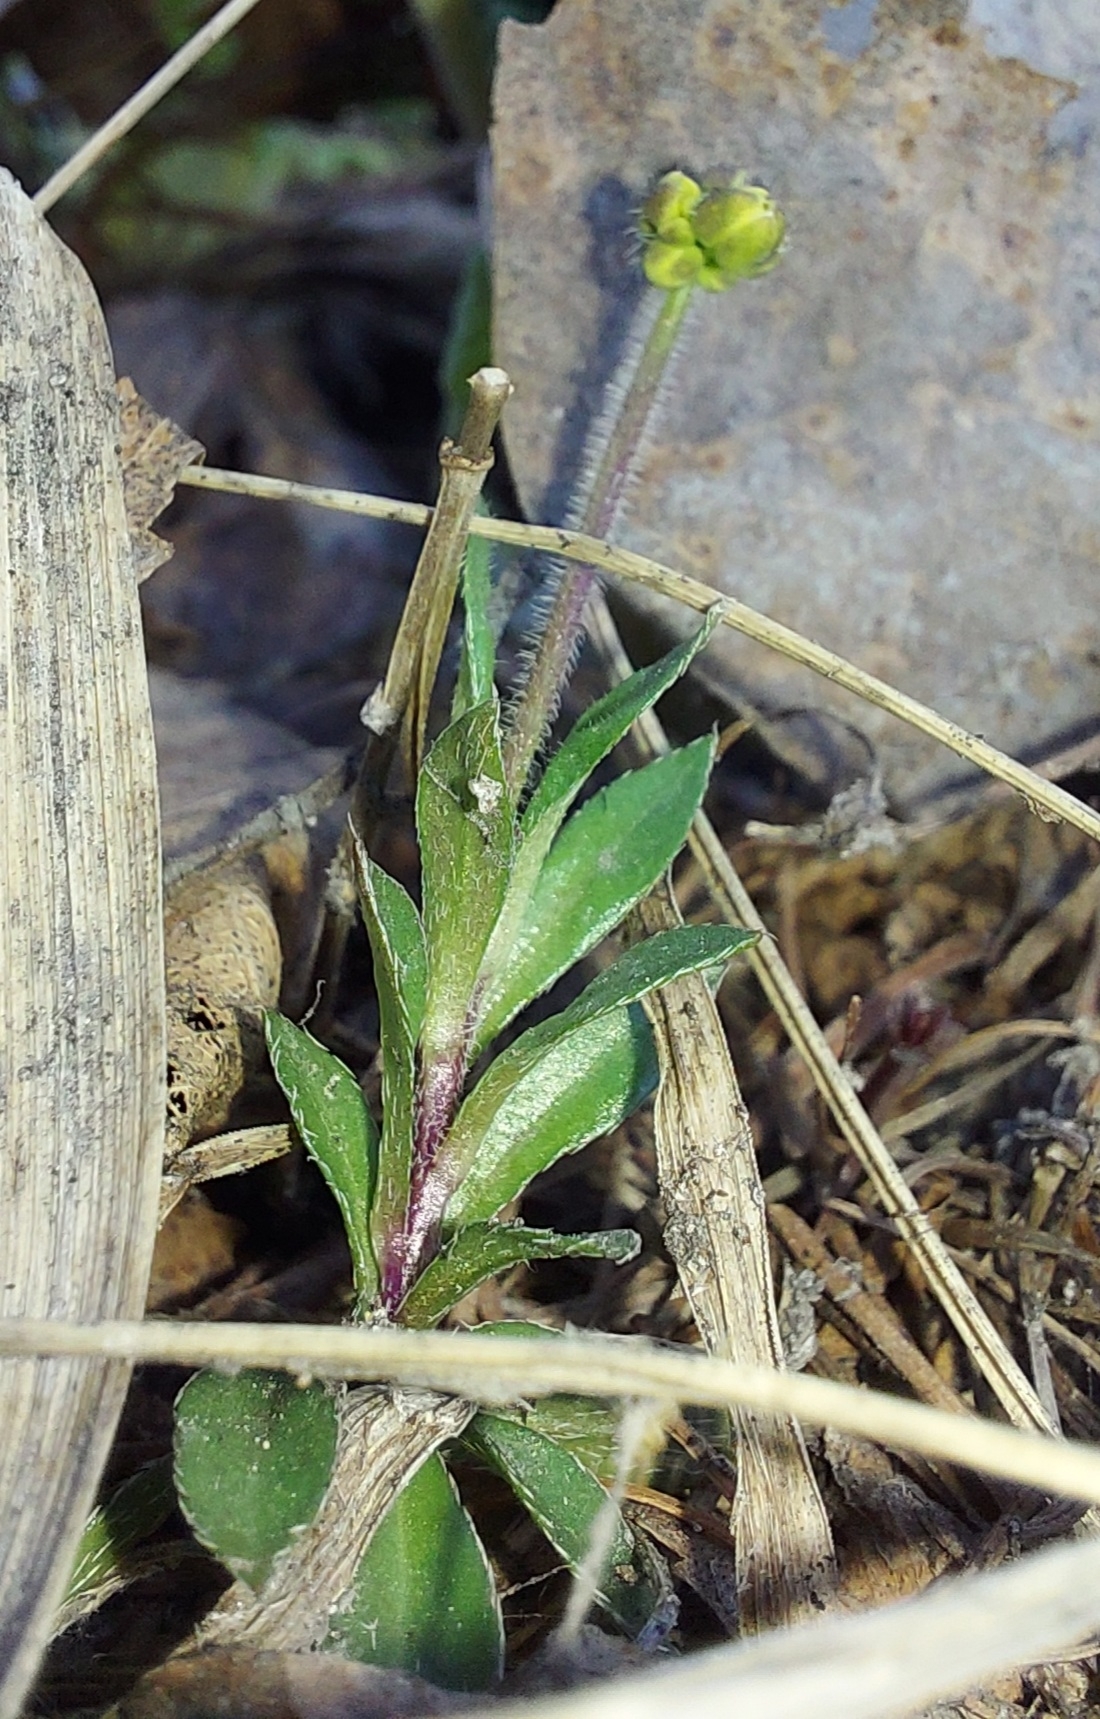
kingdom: Plantae
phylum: Tracheophyta
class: Magnoliopsida
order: Brassicales
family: Brassicaceae
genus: Draba
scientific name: Draba sibirica
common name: Siberian draba
